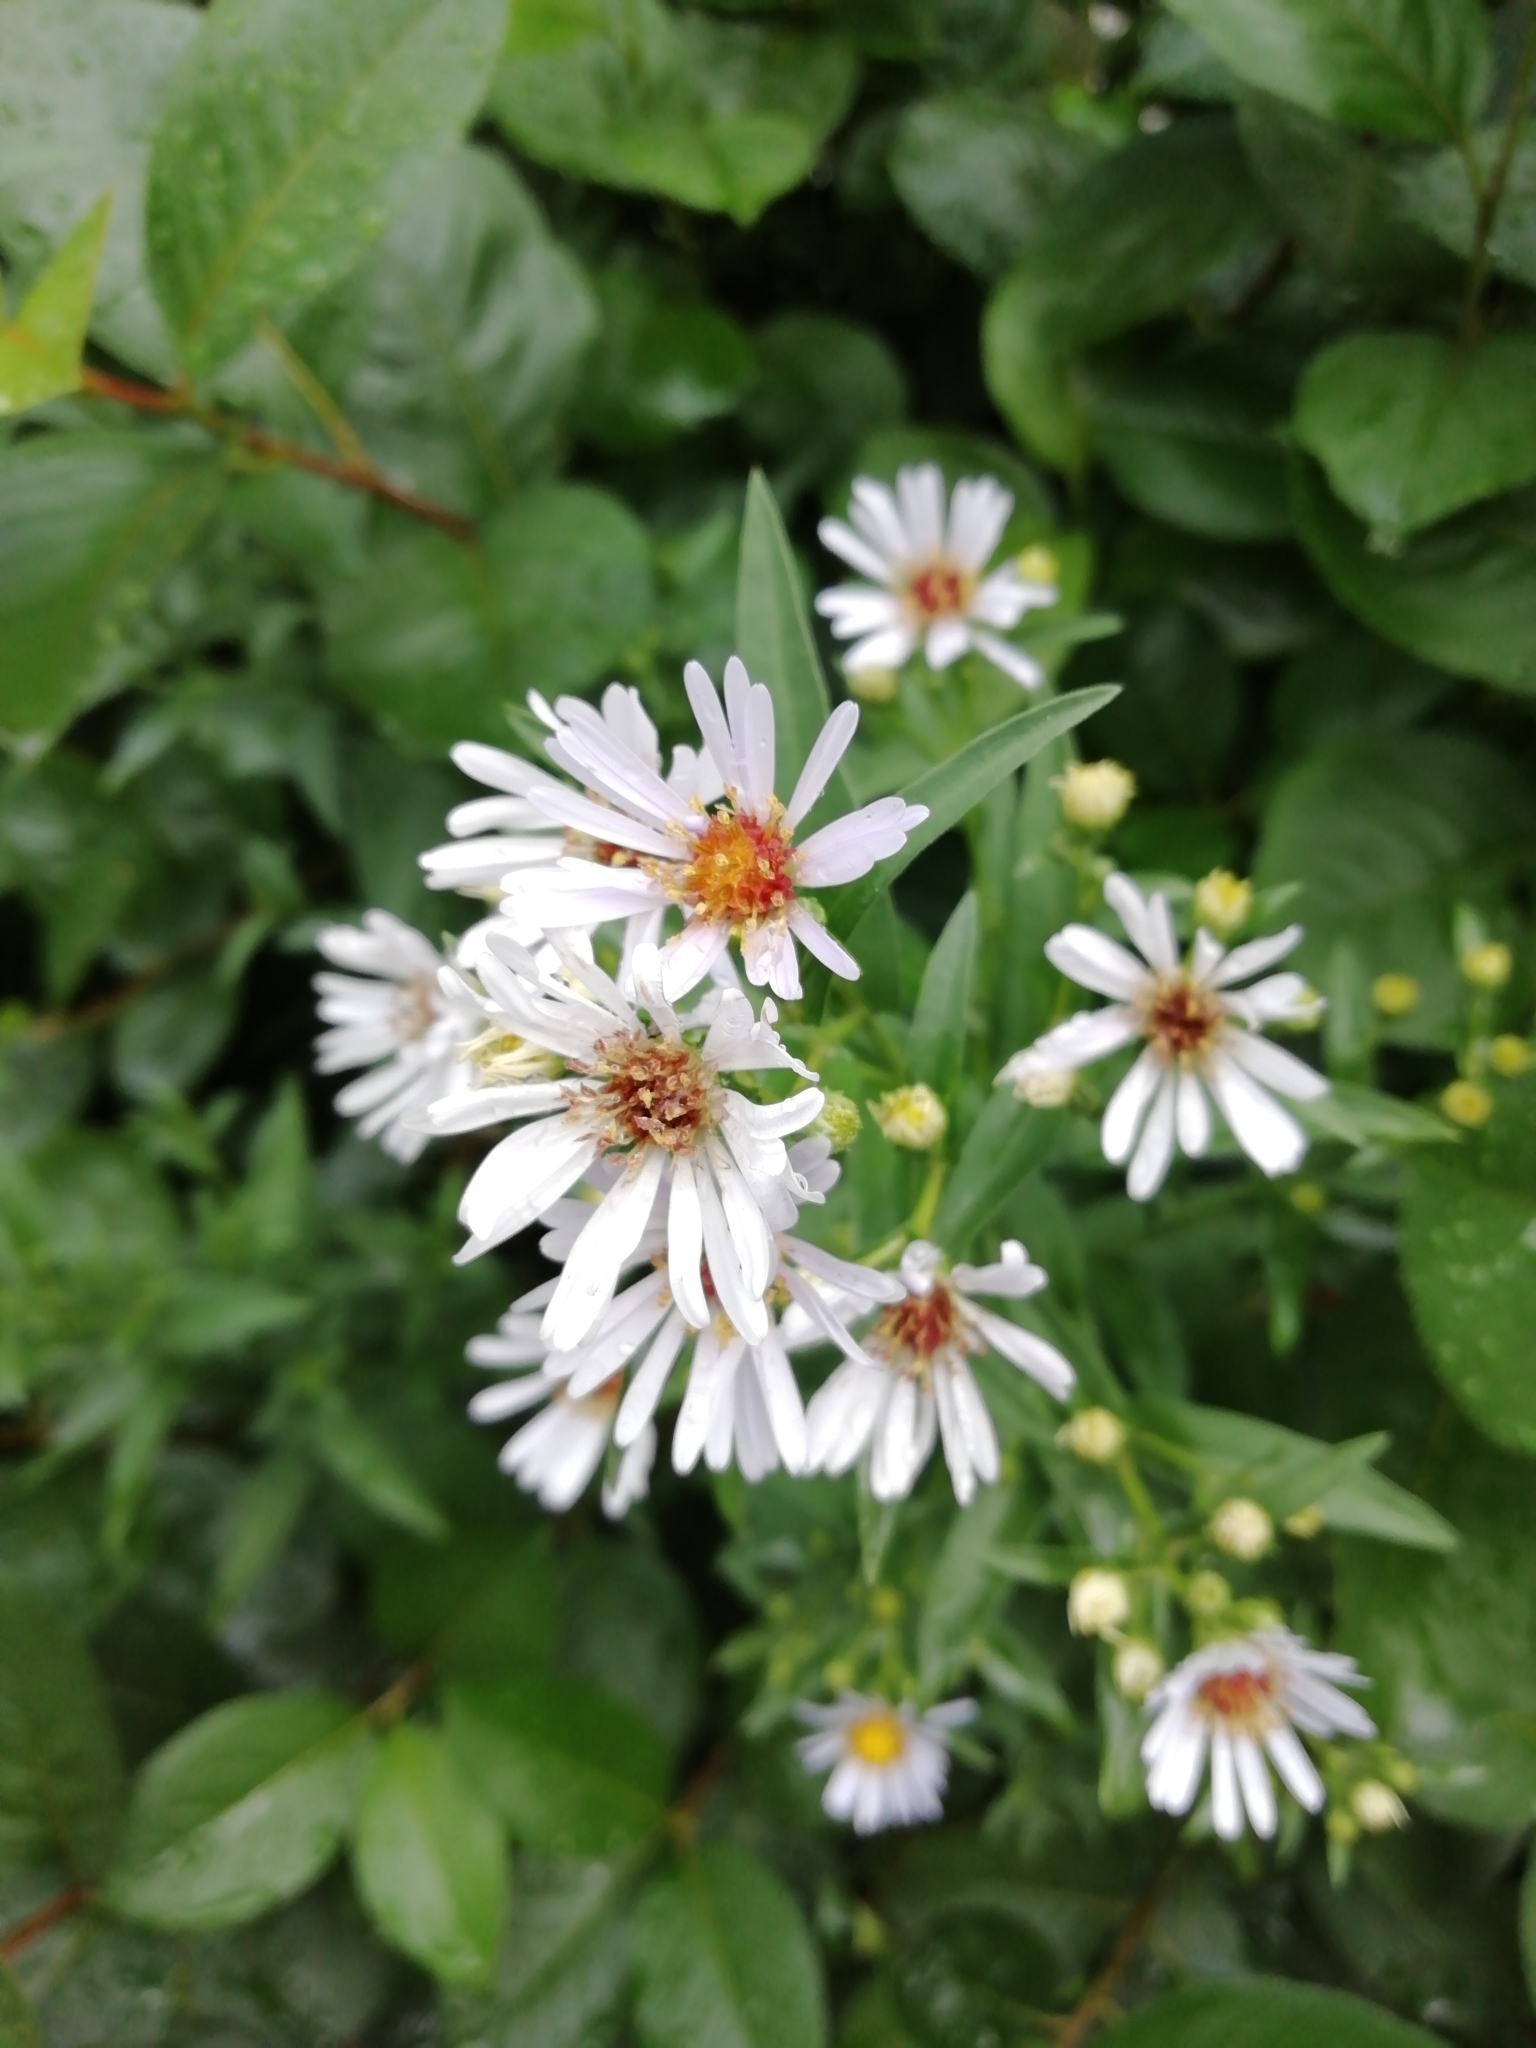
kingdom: Plantae
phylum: Tracheophyta
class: Magnoliopsida
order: Asterales
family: Asteraceae
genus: Symphyotrichum
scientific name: Symphyotrichum salignum
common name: Common michaelmas daisy
